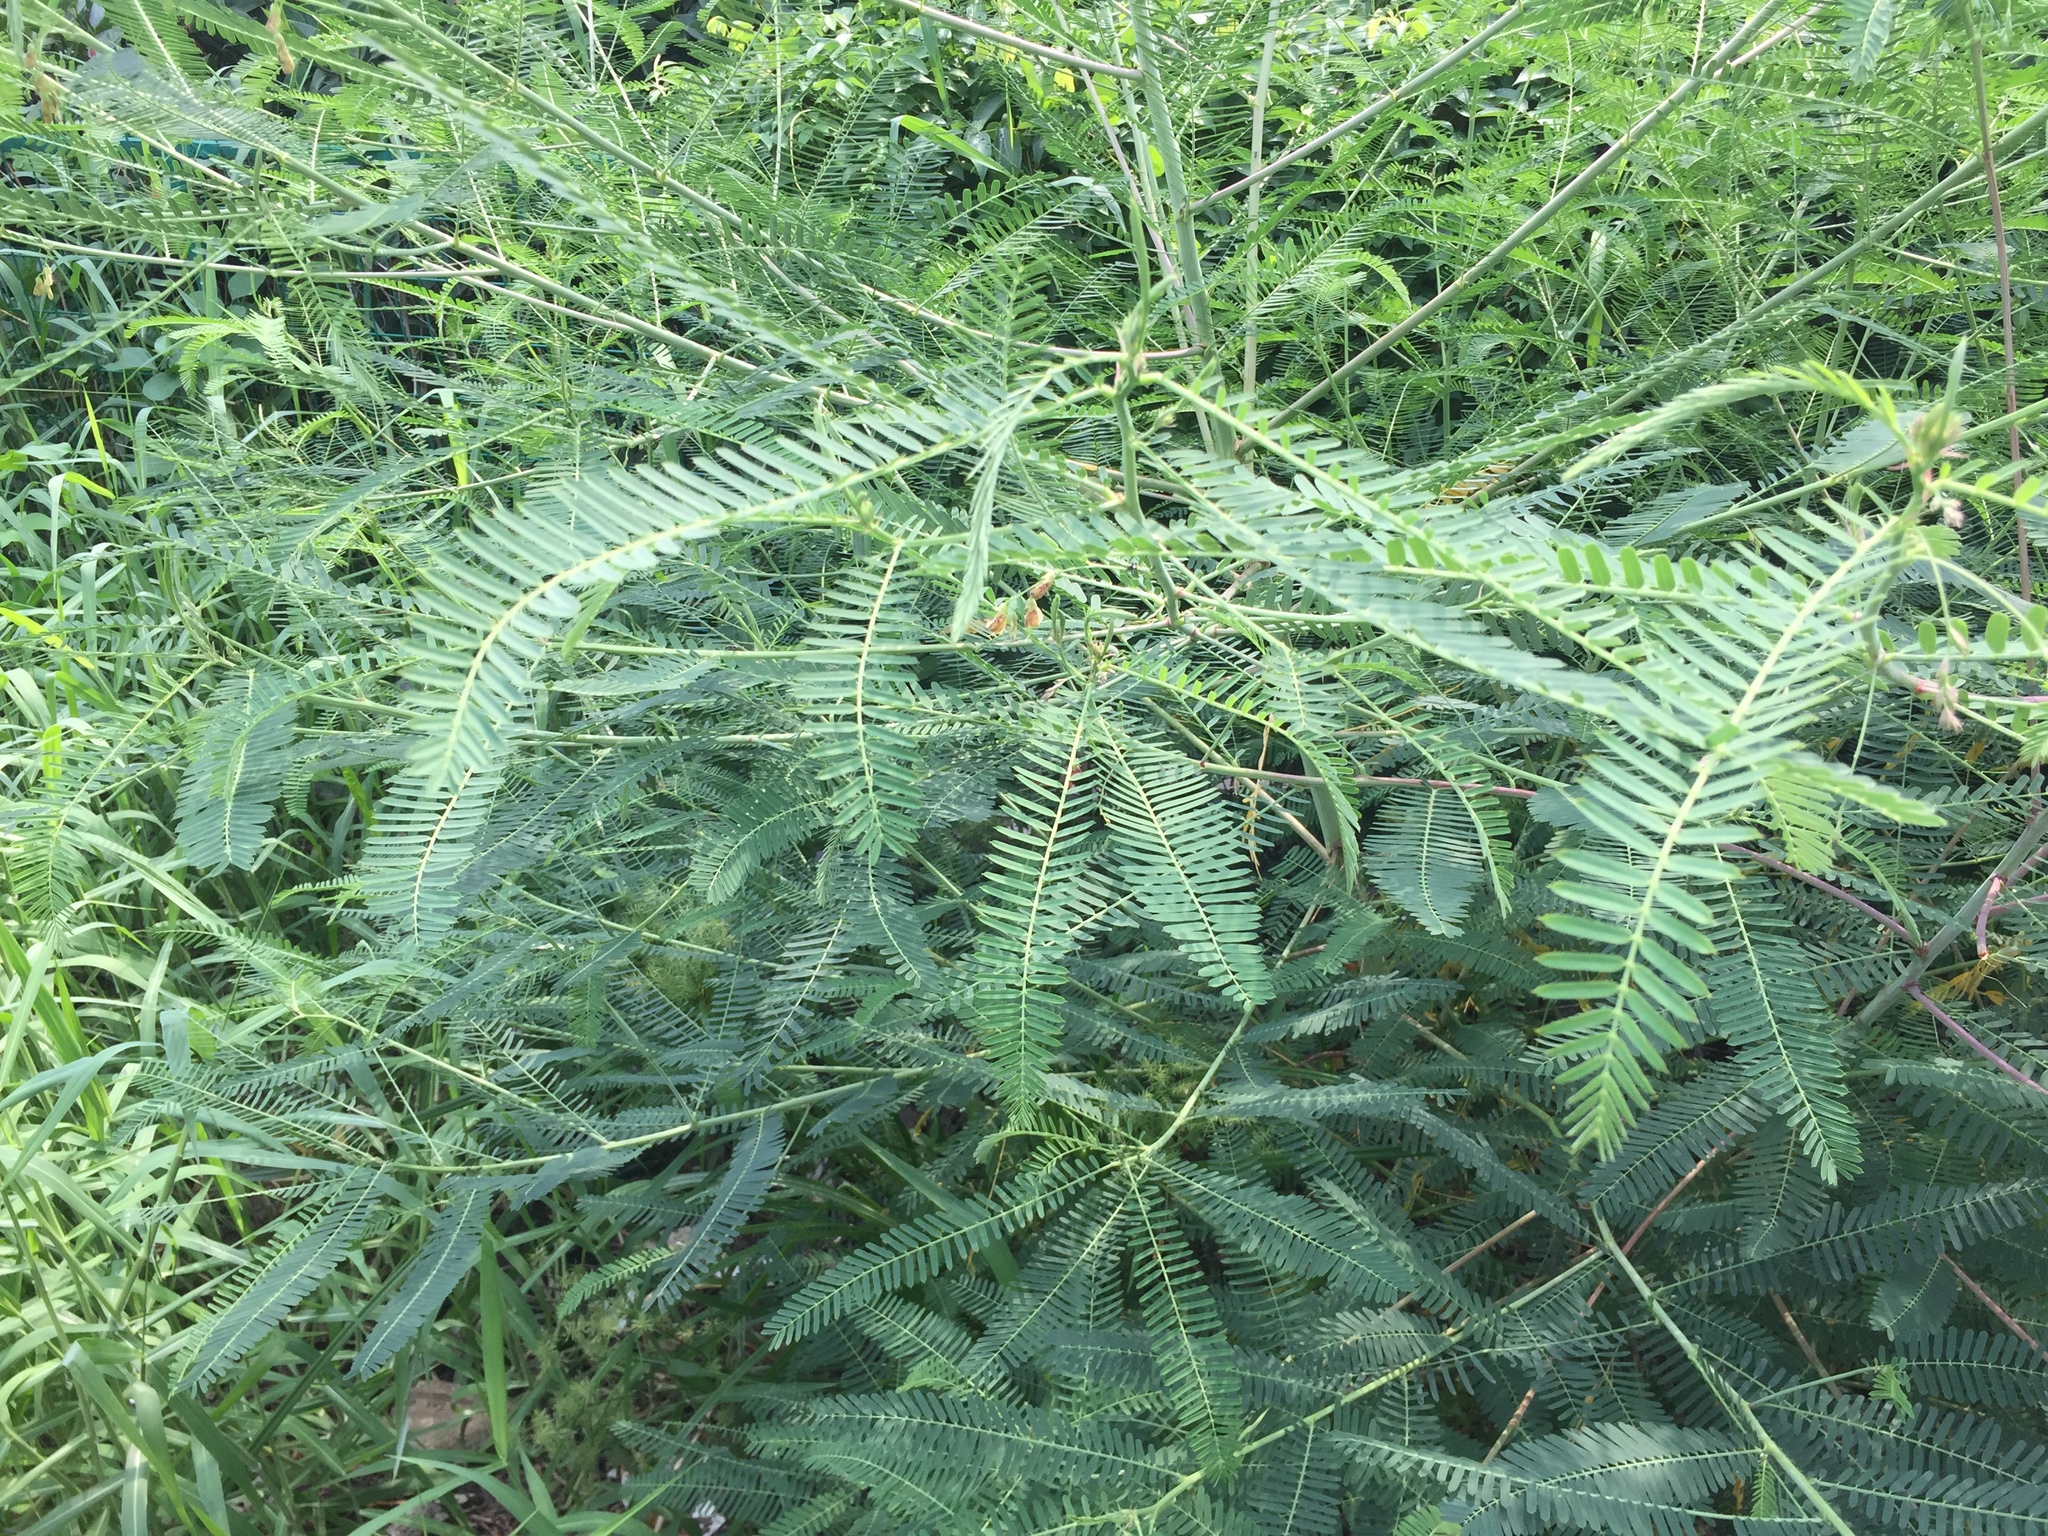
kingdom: Plantae
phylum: Tracheophyta
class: Magnoliopsida
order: Fabales
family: Fabaceae
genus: Sesbania
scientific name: Sesbania cannabina
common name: Canicha
